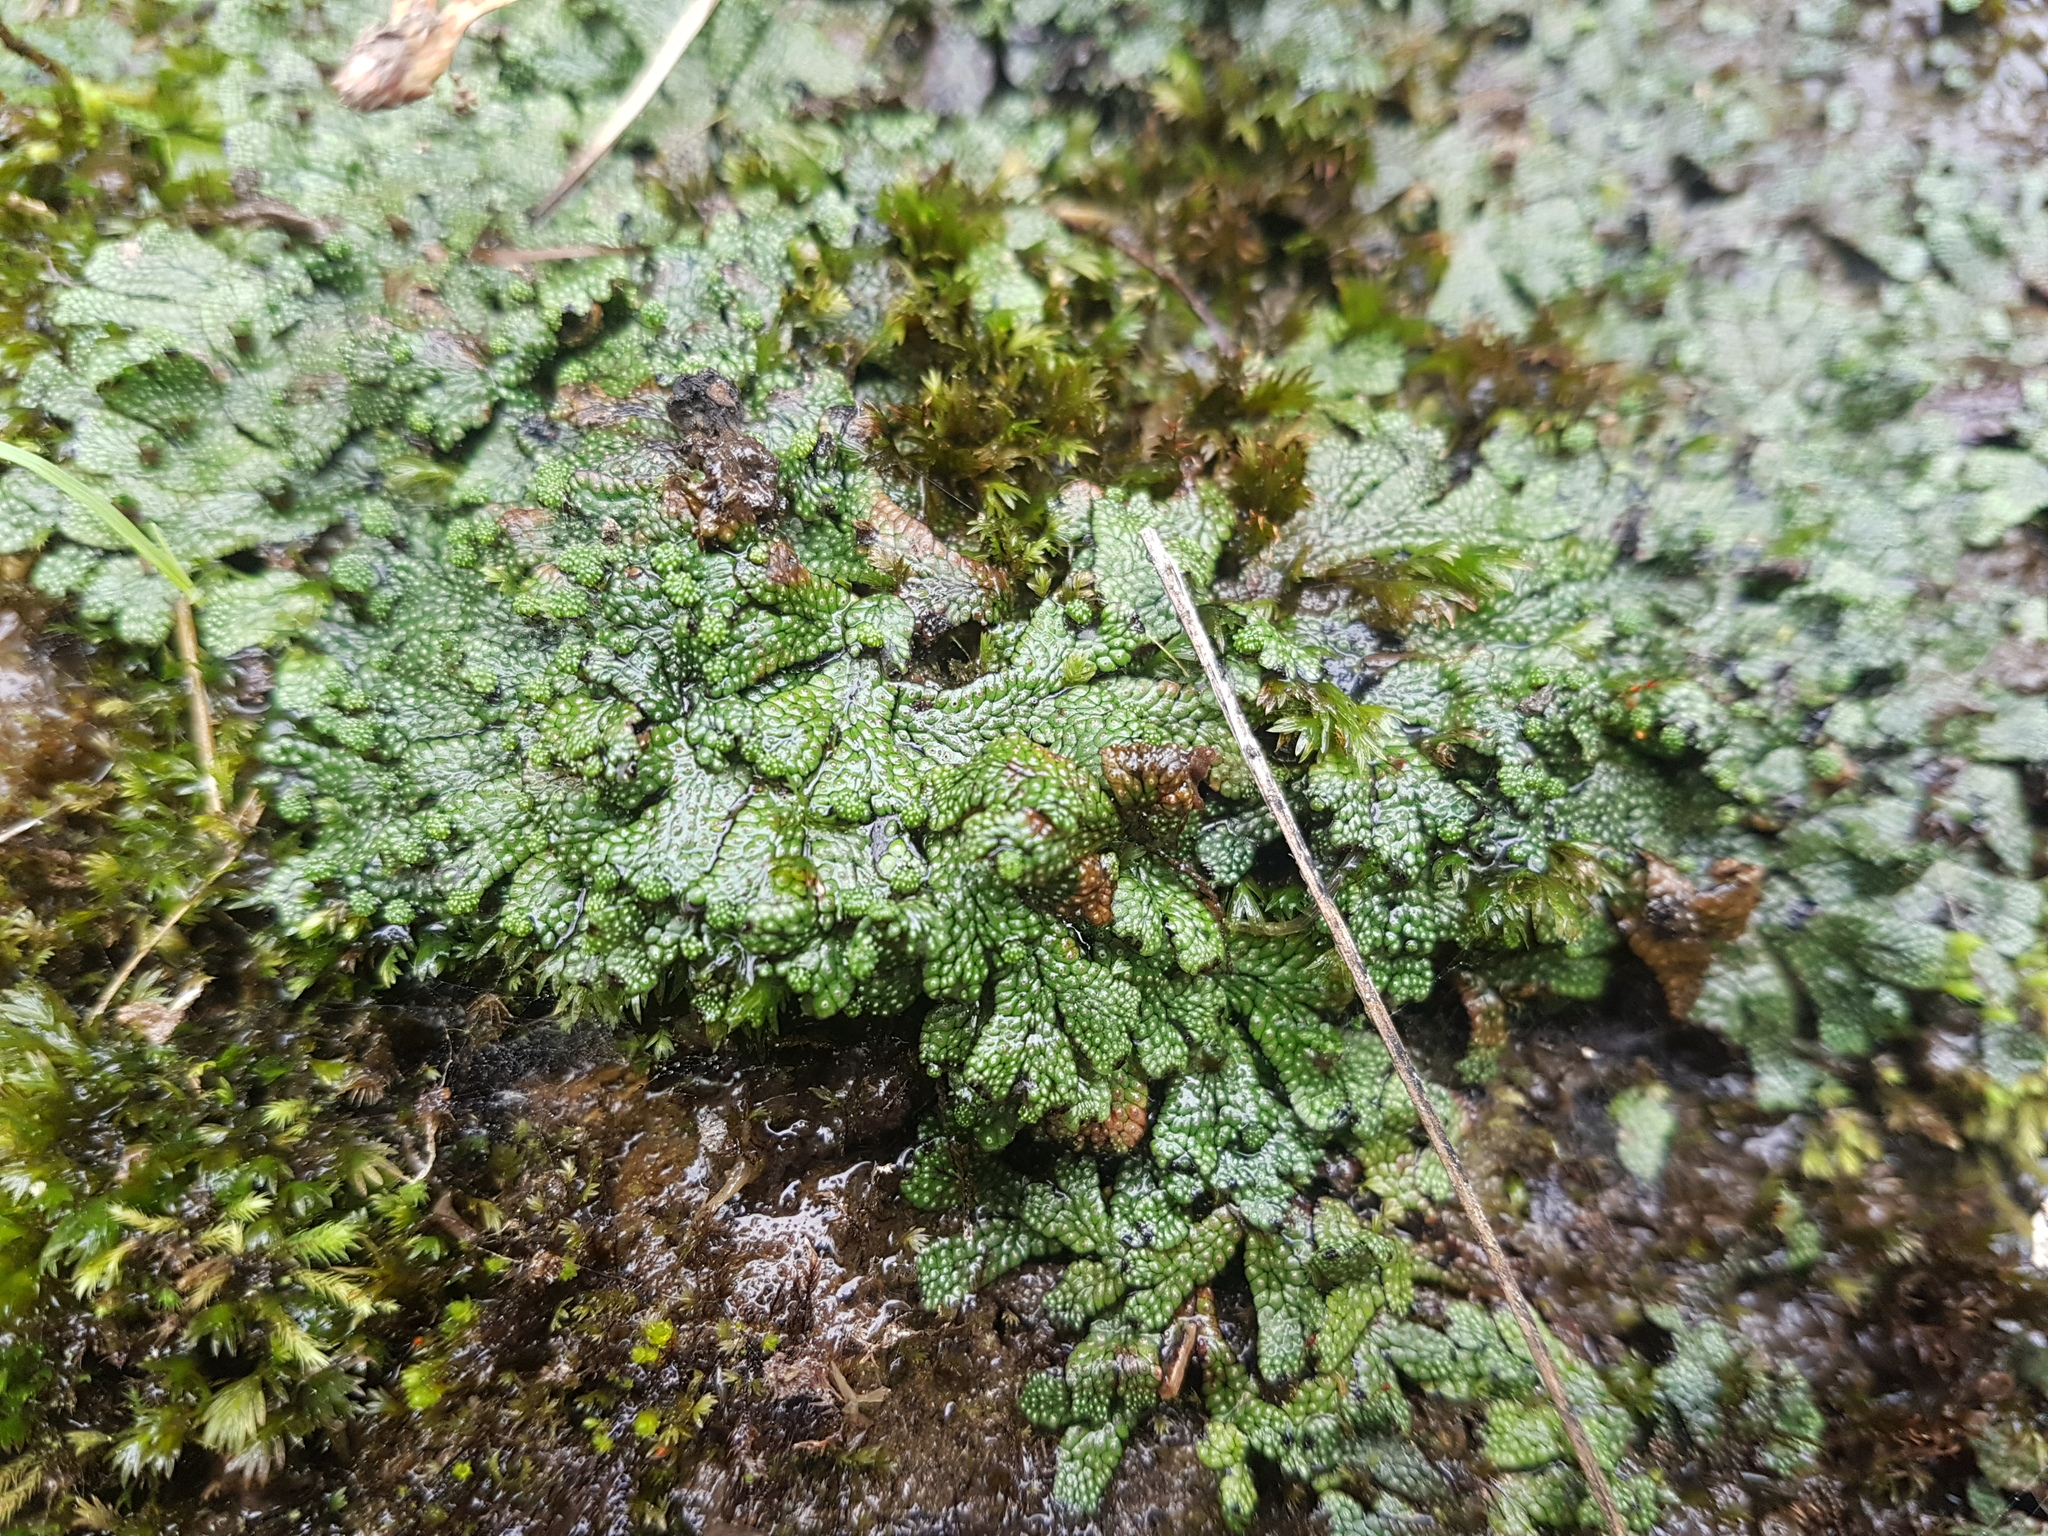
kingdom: Plantae
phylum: Marchantiophyta
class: Marchantiopsida
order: Marchantiales
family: Marchantiaceae
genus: Marchantia
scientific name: Marchantia macropora
